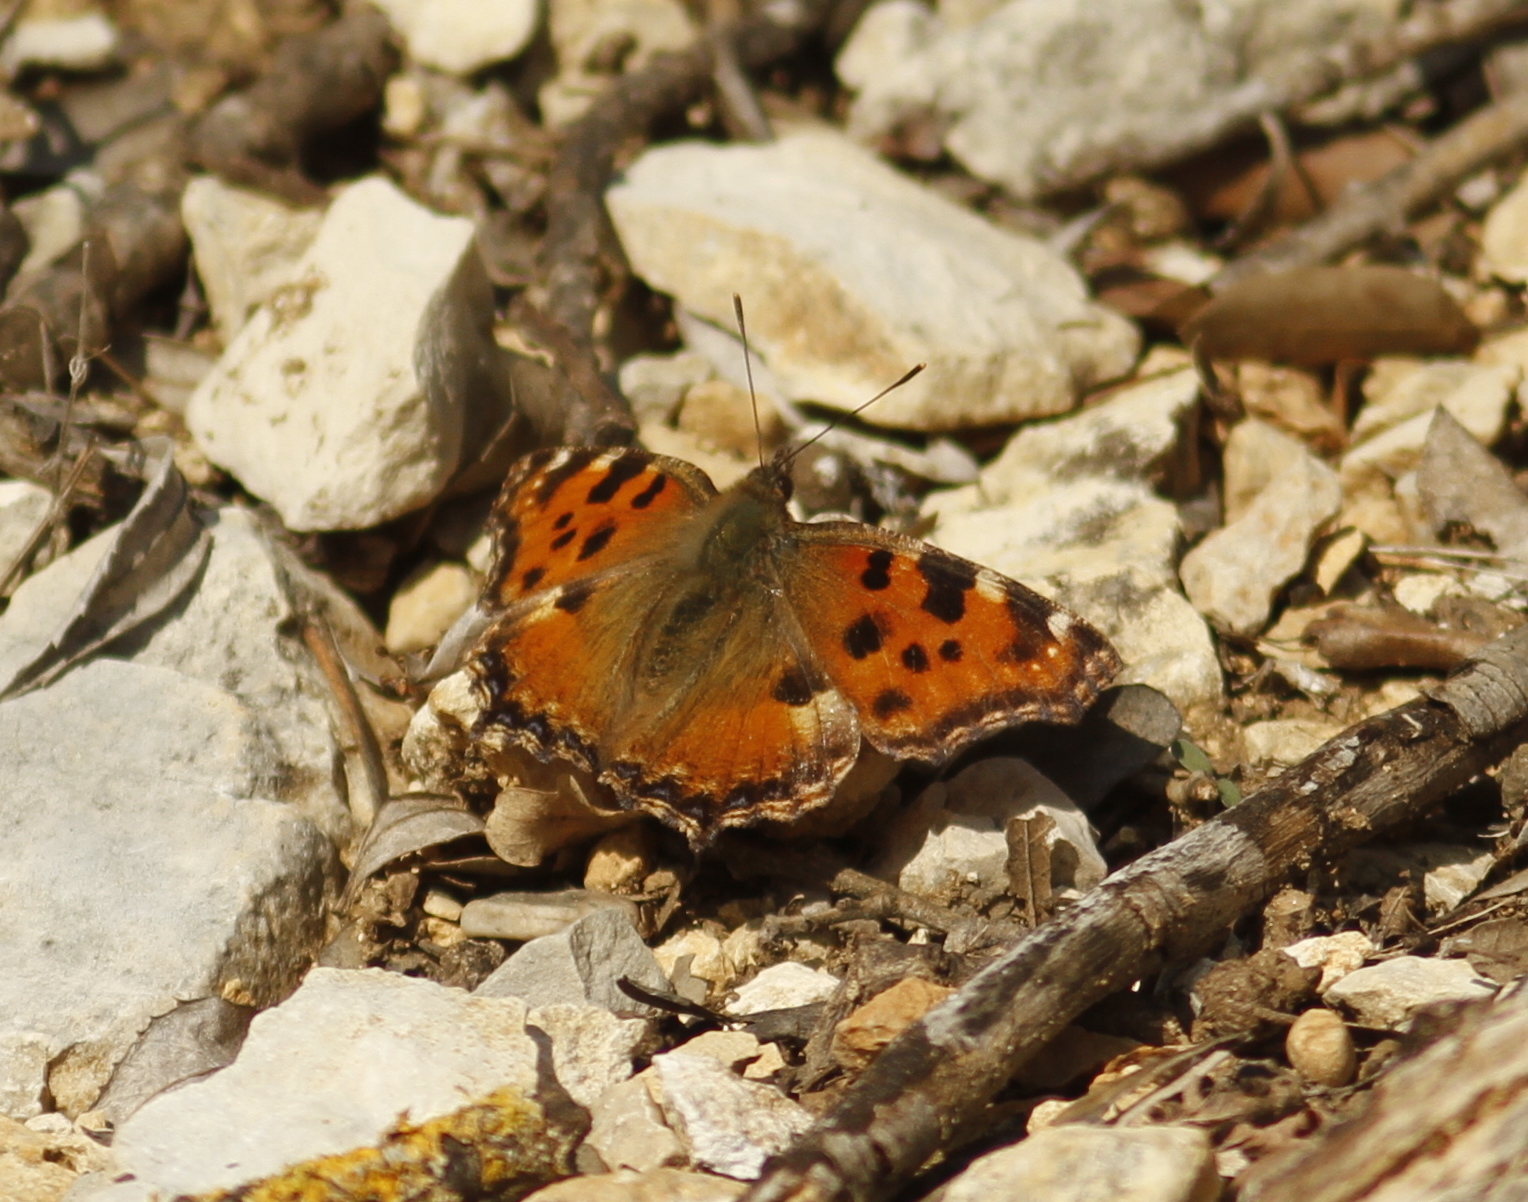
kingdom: Animalia
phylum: Arthropoda
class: Insecta
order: Lepidoptera
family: Nymphalidae
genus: Nymphalis
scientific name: Nymphalis polychloros
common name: Large tortoiseshell
